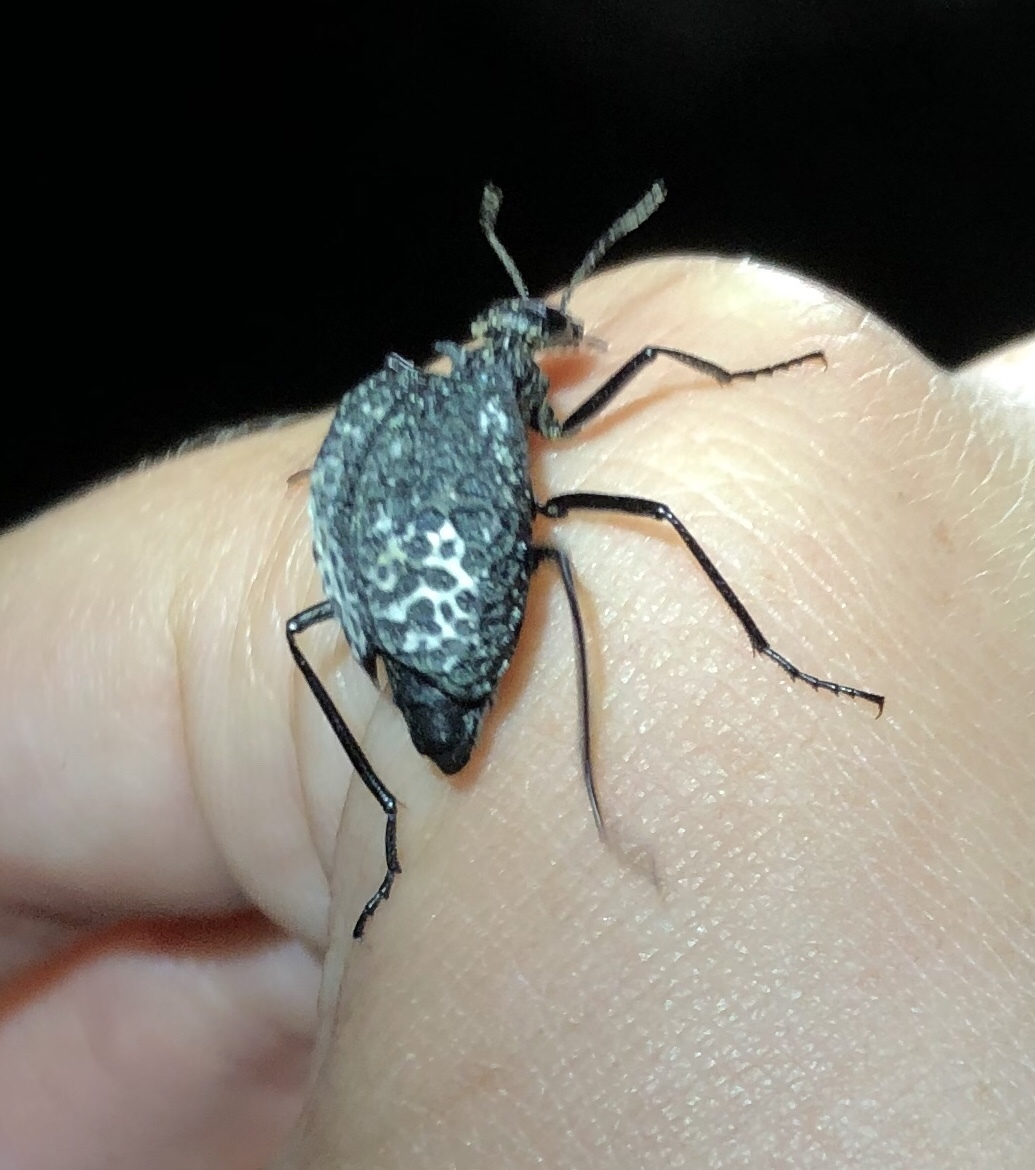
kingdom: Animalia
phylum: Arthropoda
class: Insecta
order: Coleoptera
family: Meloidae
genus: Cysteodemus
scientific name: Cysteodemus armatus
